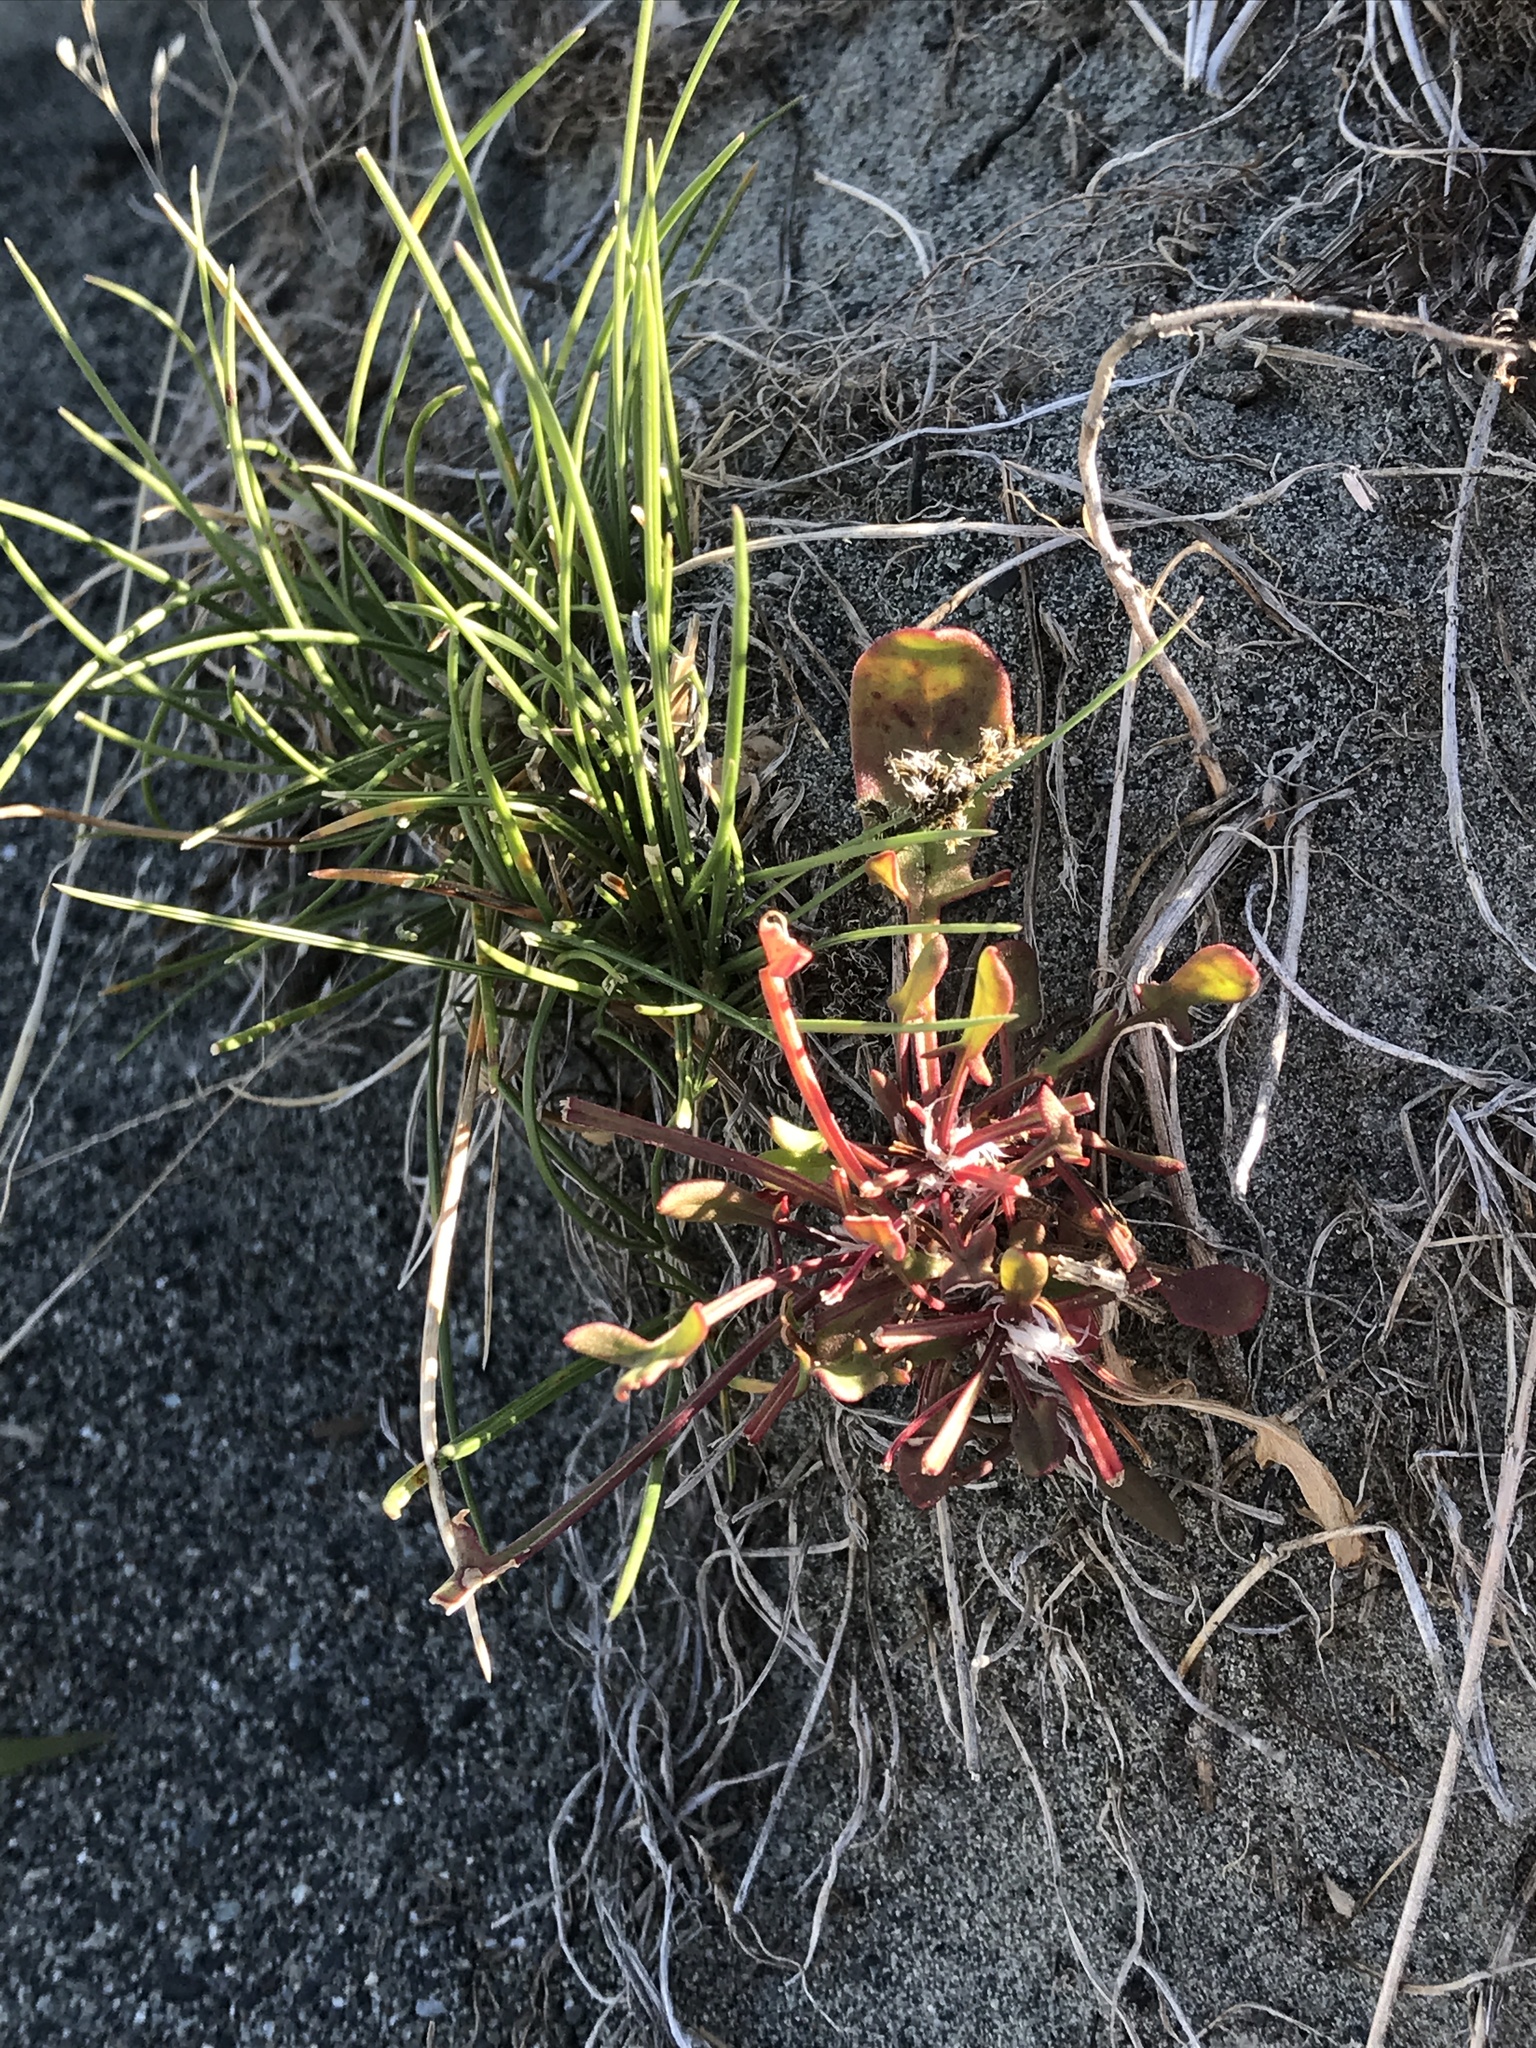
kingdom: Plantae
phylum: Tracheophyta
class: Magnoliopsida
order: Caryophyllales
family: Polygonaceae
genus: Rumex
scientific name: Rumex acetosella
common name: Common sheep sorrel
